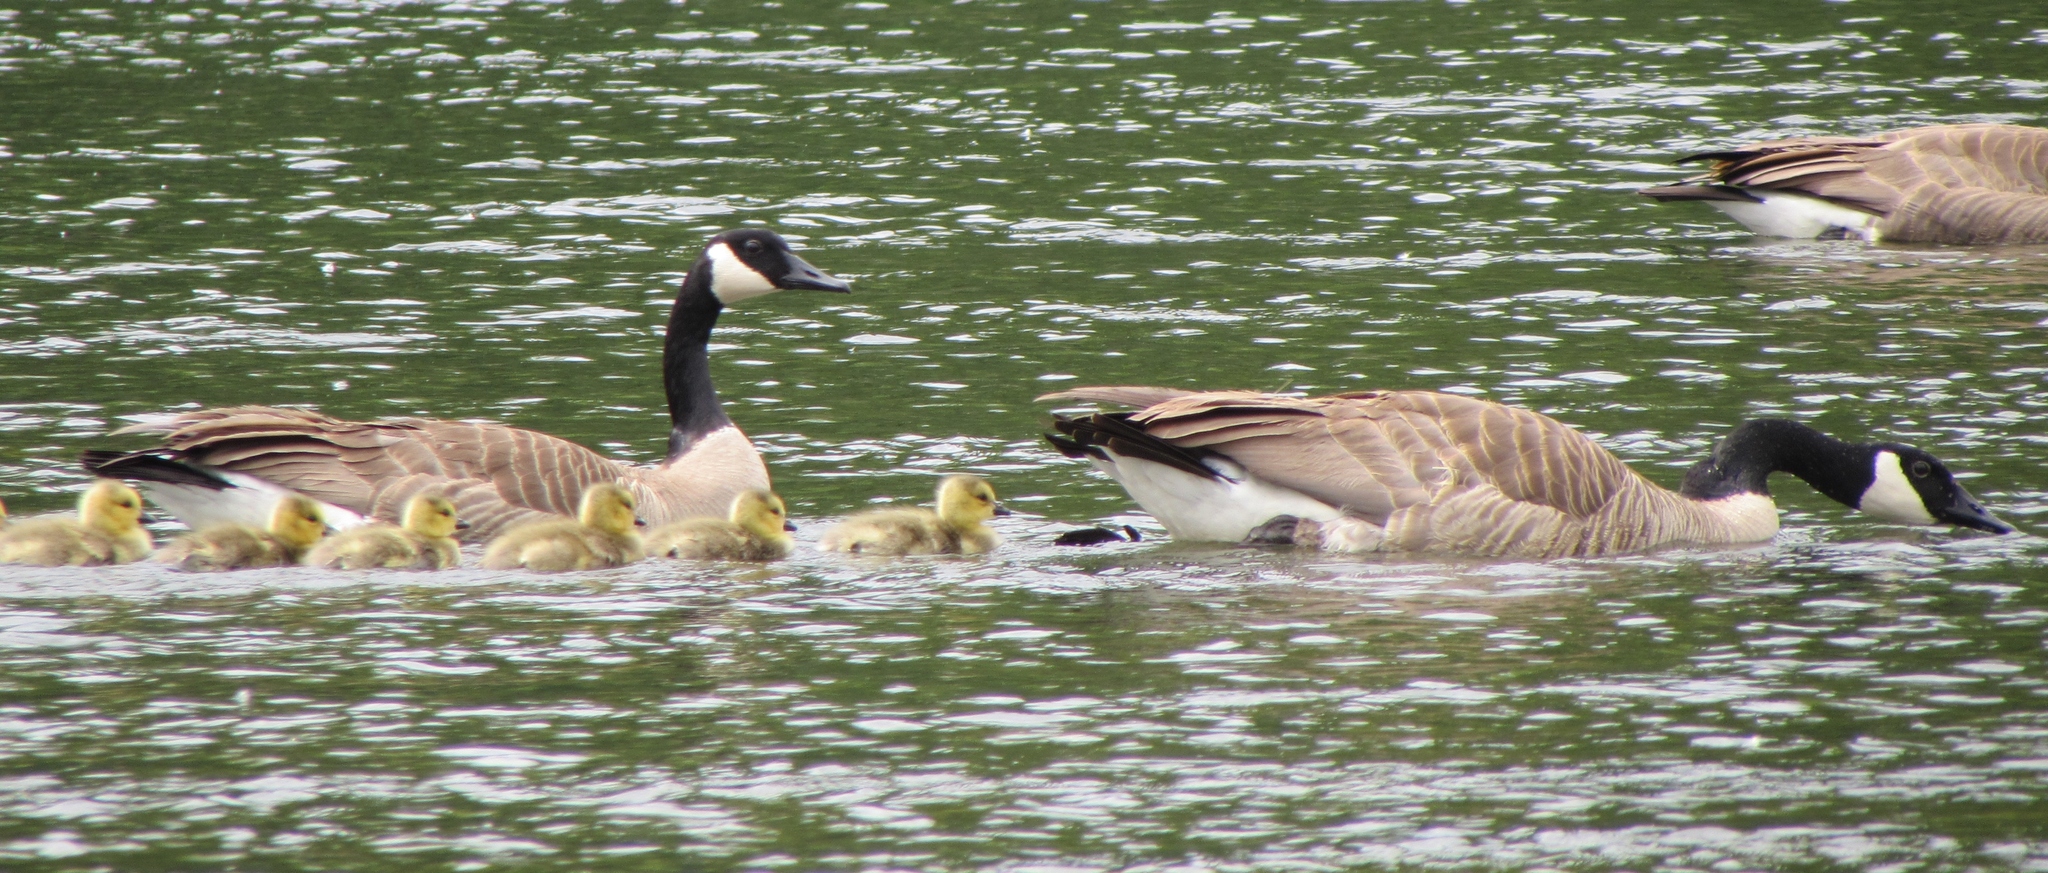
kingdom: Animalia
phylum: Chordata
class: Aves
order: Anseriformes
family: Anatidae
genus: Branta
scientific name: Branta canadensis
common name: Canada goose
